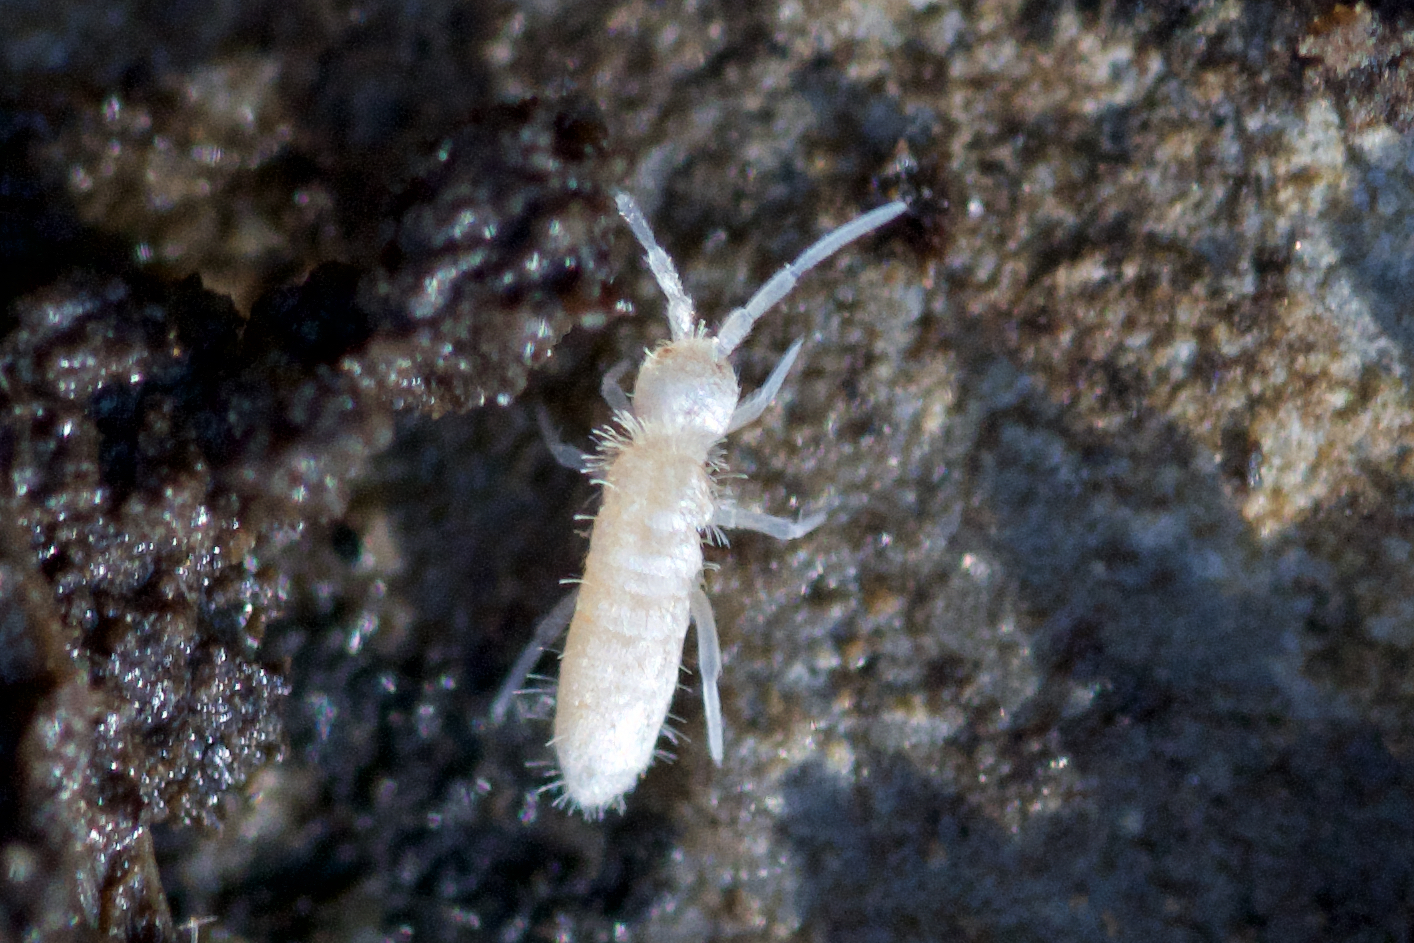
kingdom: Animalia
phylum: Arthropoda
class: Collembola
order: Entomobryomorpha
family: Orchesellidae
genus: Heteromurus
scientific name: Heteromurus nitidus
